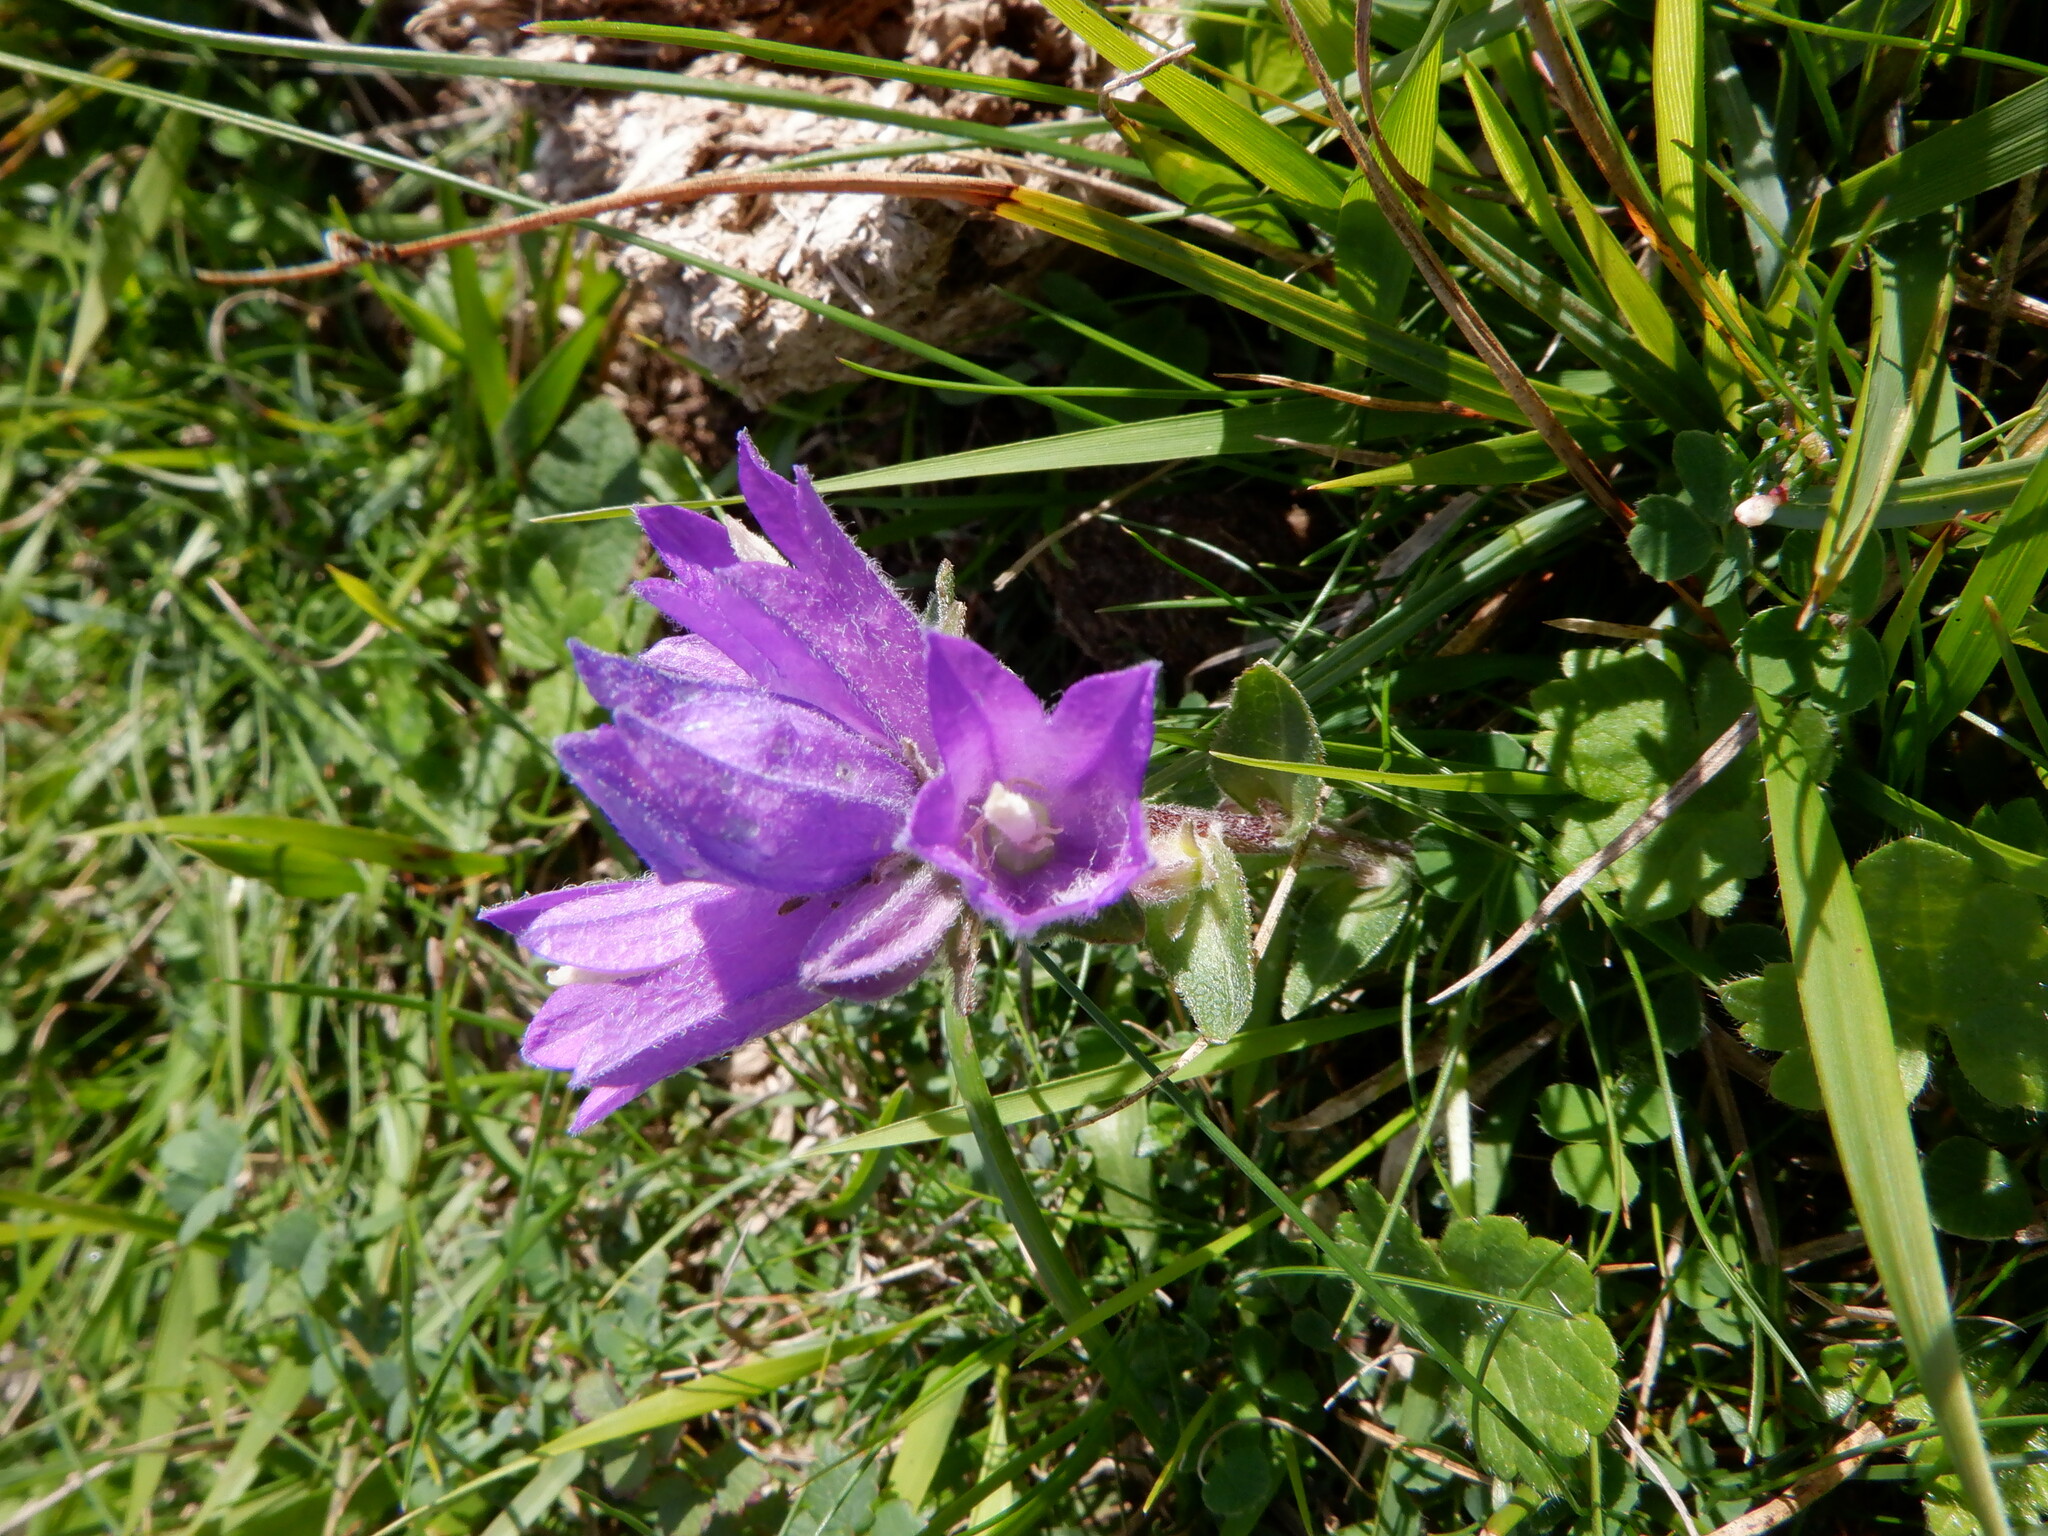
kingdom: Plantae
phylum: Tracheophyta
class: Magnoliopsida
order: Asterales
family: Campanulaceae
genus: Campanula
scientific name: Campanula glomerata
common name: Clustered bellflower
